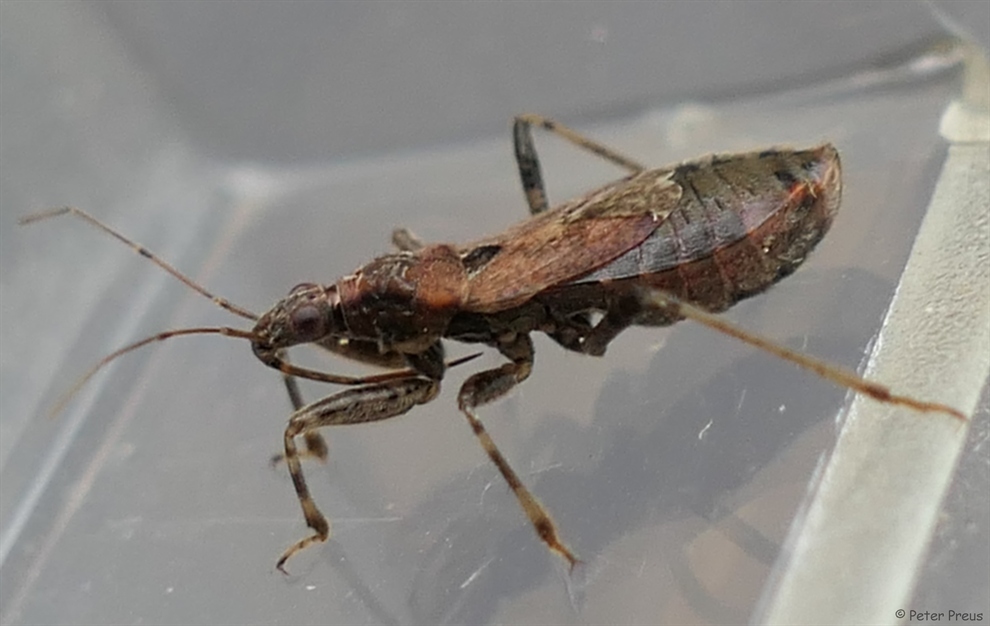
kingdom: Animalia
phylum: Arthropoda
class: Insecta
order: Hemiptera
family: Nabidae
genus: Himacerus
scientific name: Himacerus mirmicoides
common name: Ant damsel bug
